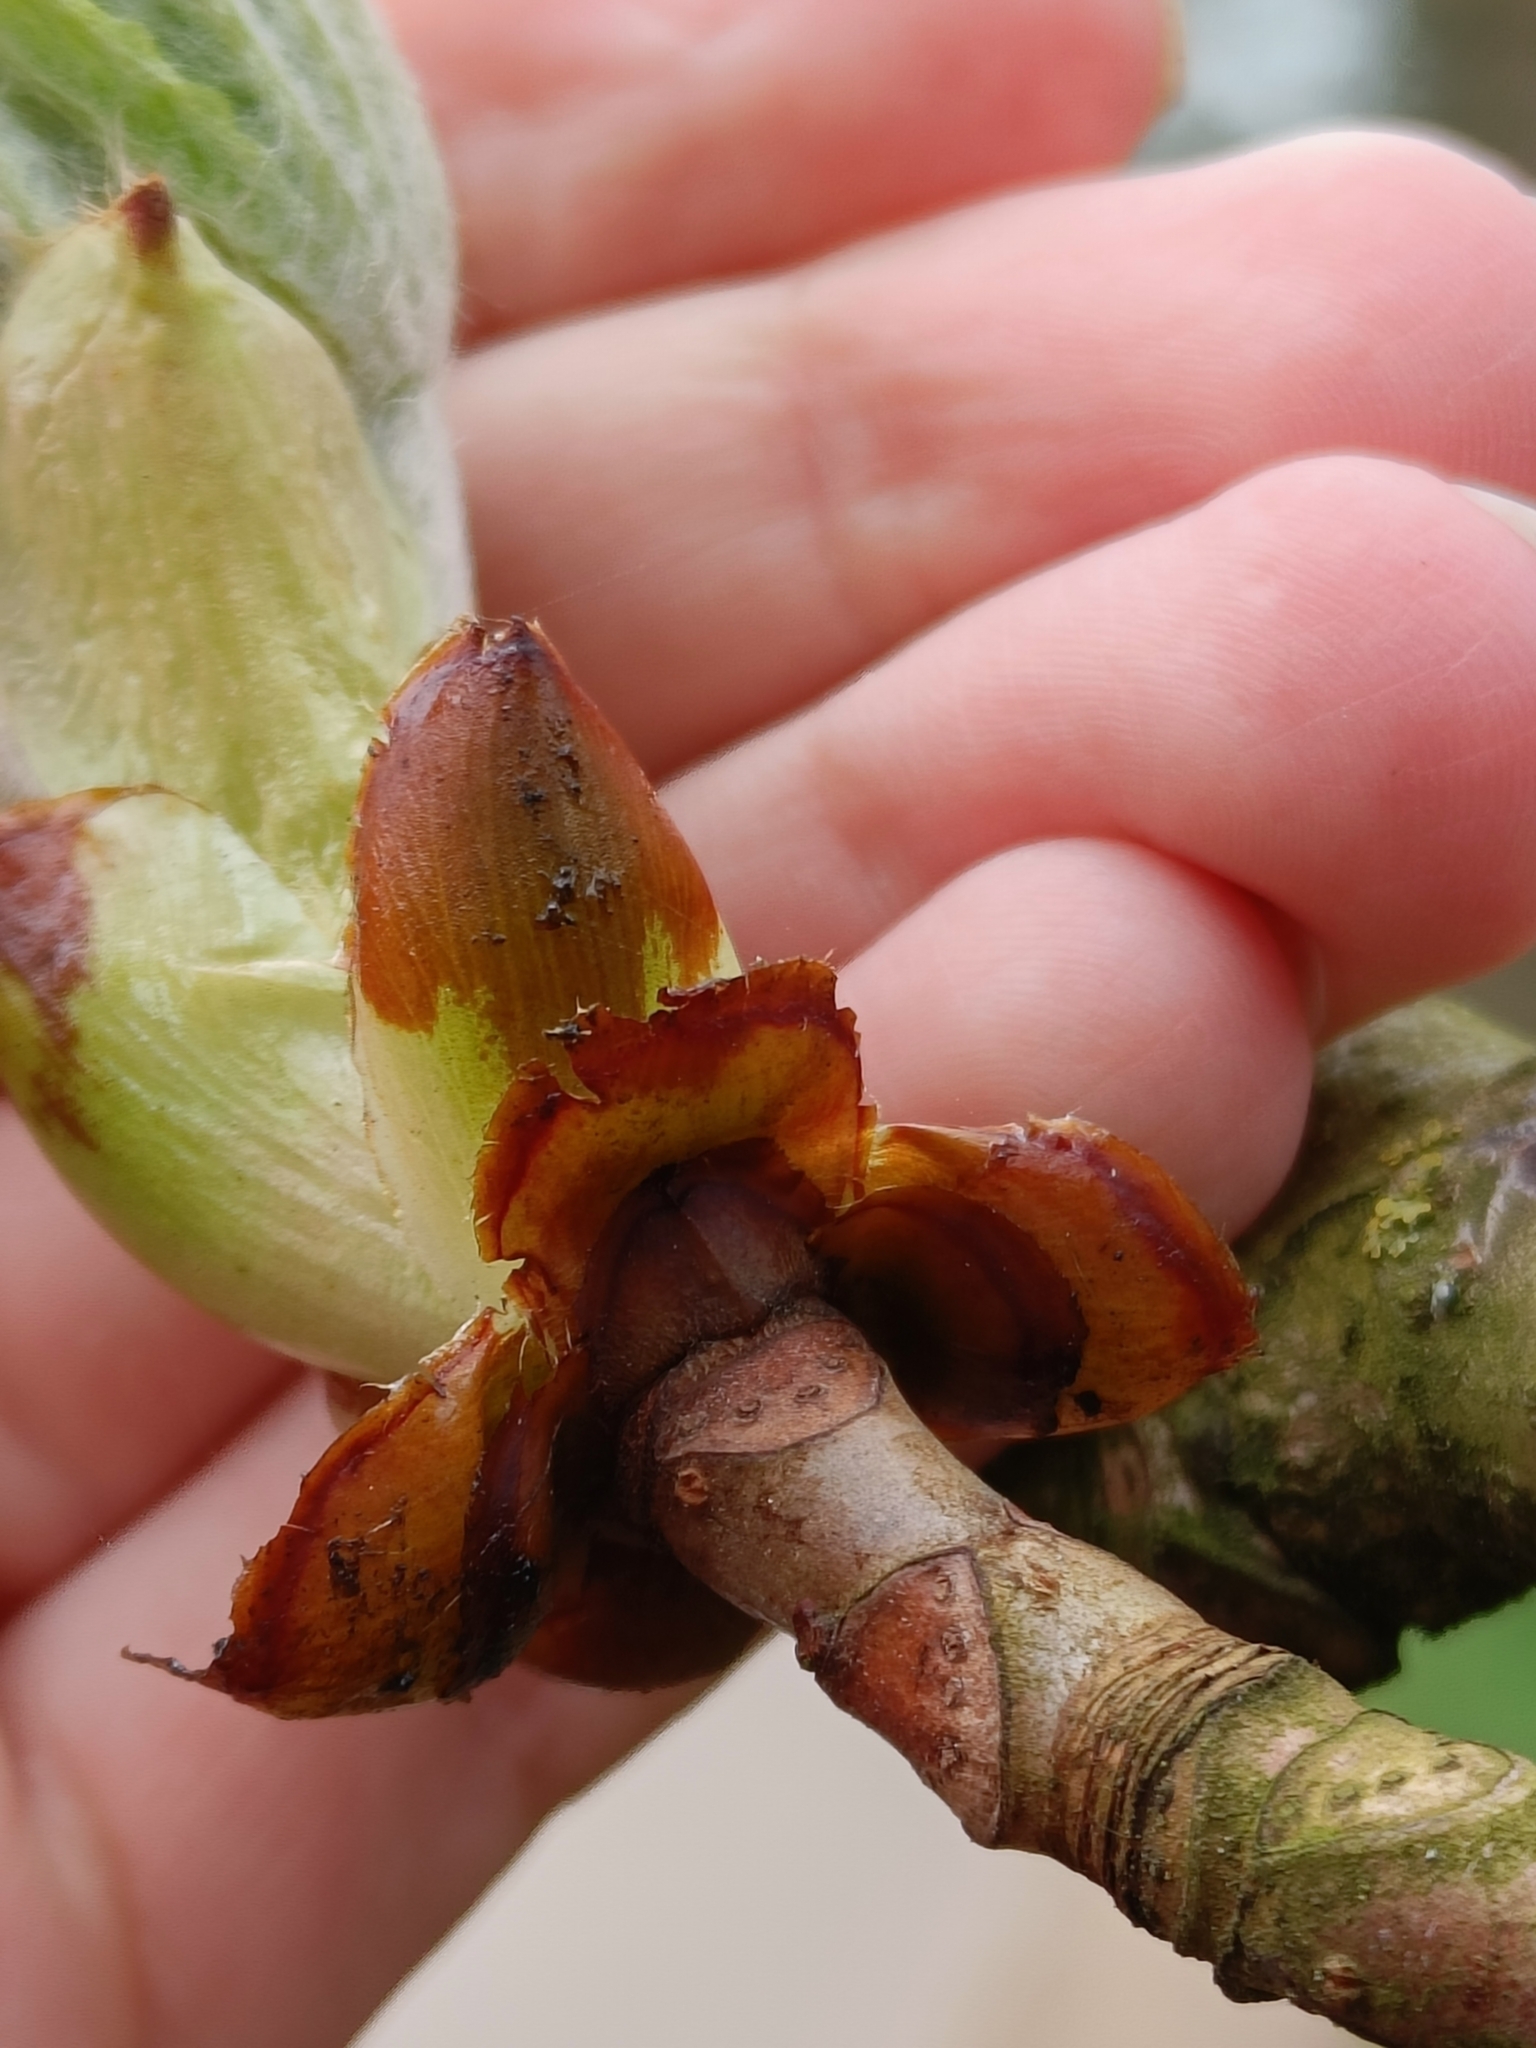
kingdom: Plantae
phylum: Tracheophyta
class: Magnoliopsida
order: Sapindales
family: Sapindaceae
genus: Aesculus
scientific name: Aesculus hippocastanum
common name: Horse-chestnut
